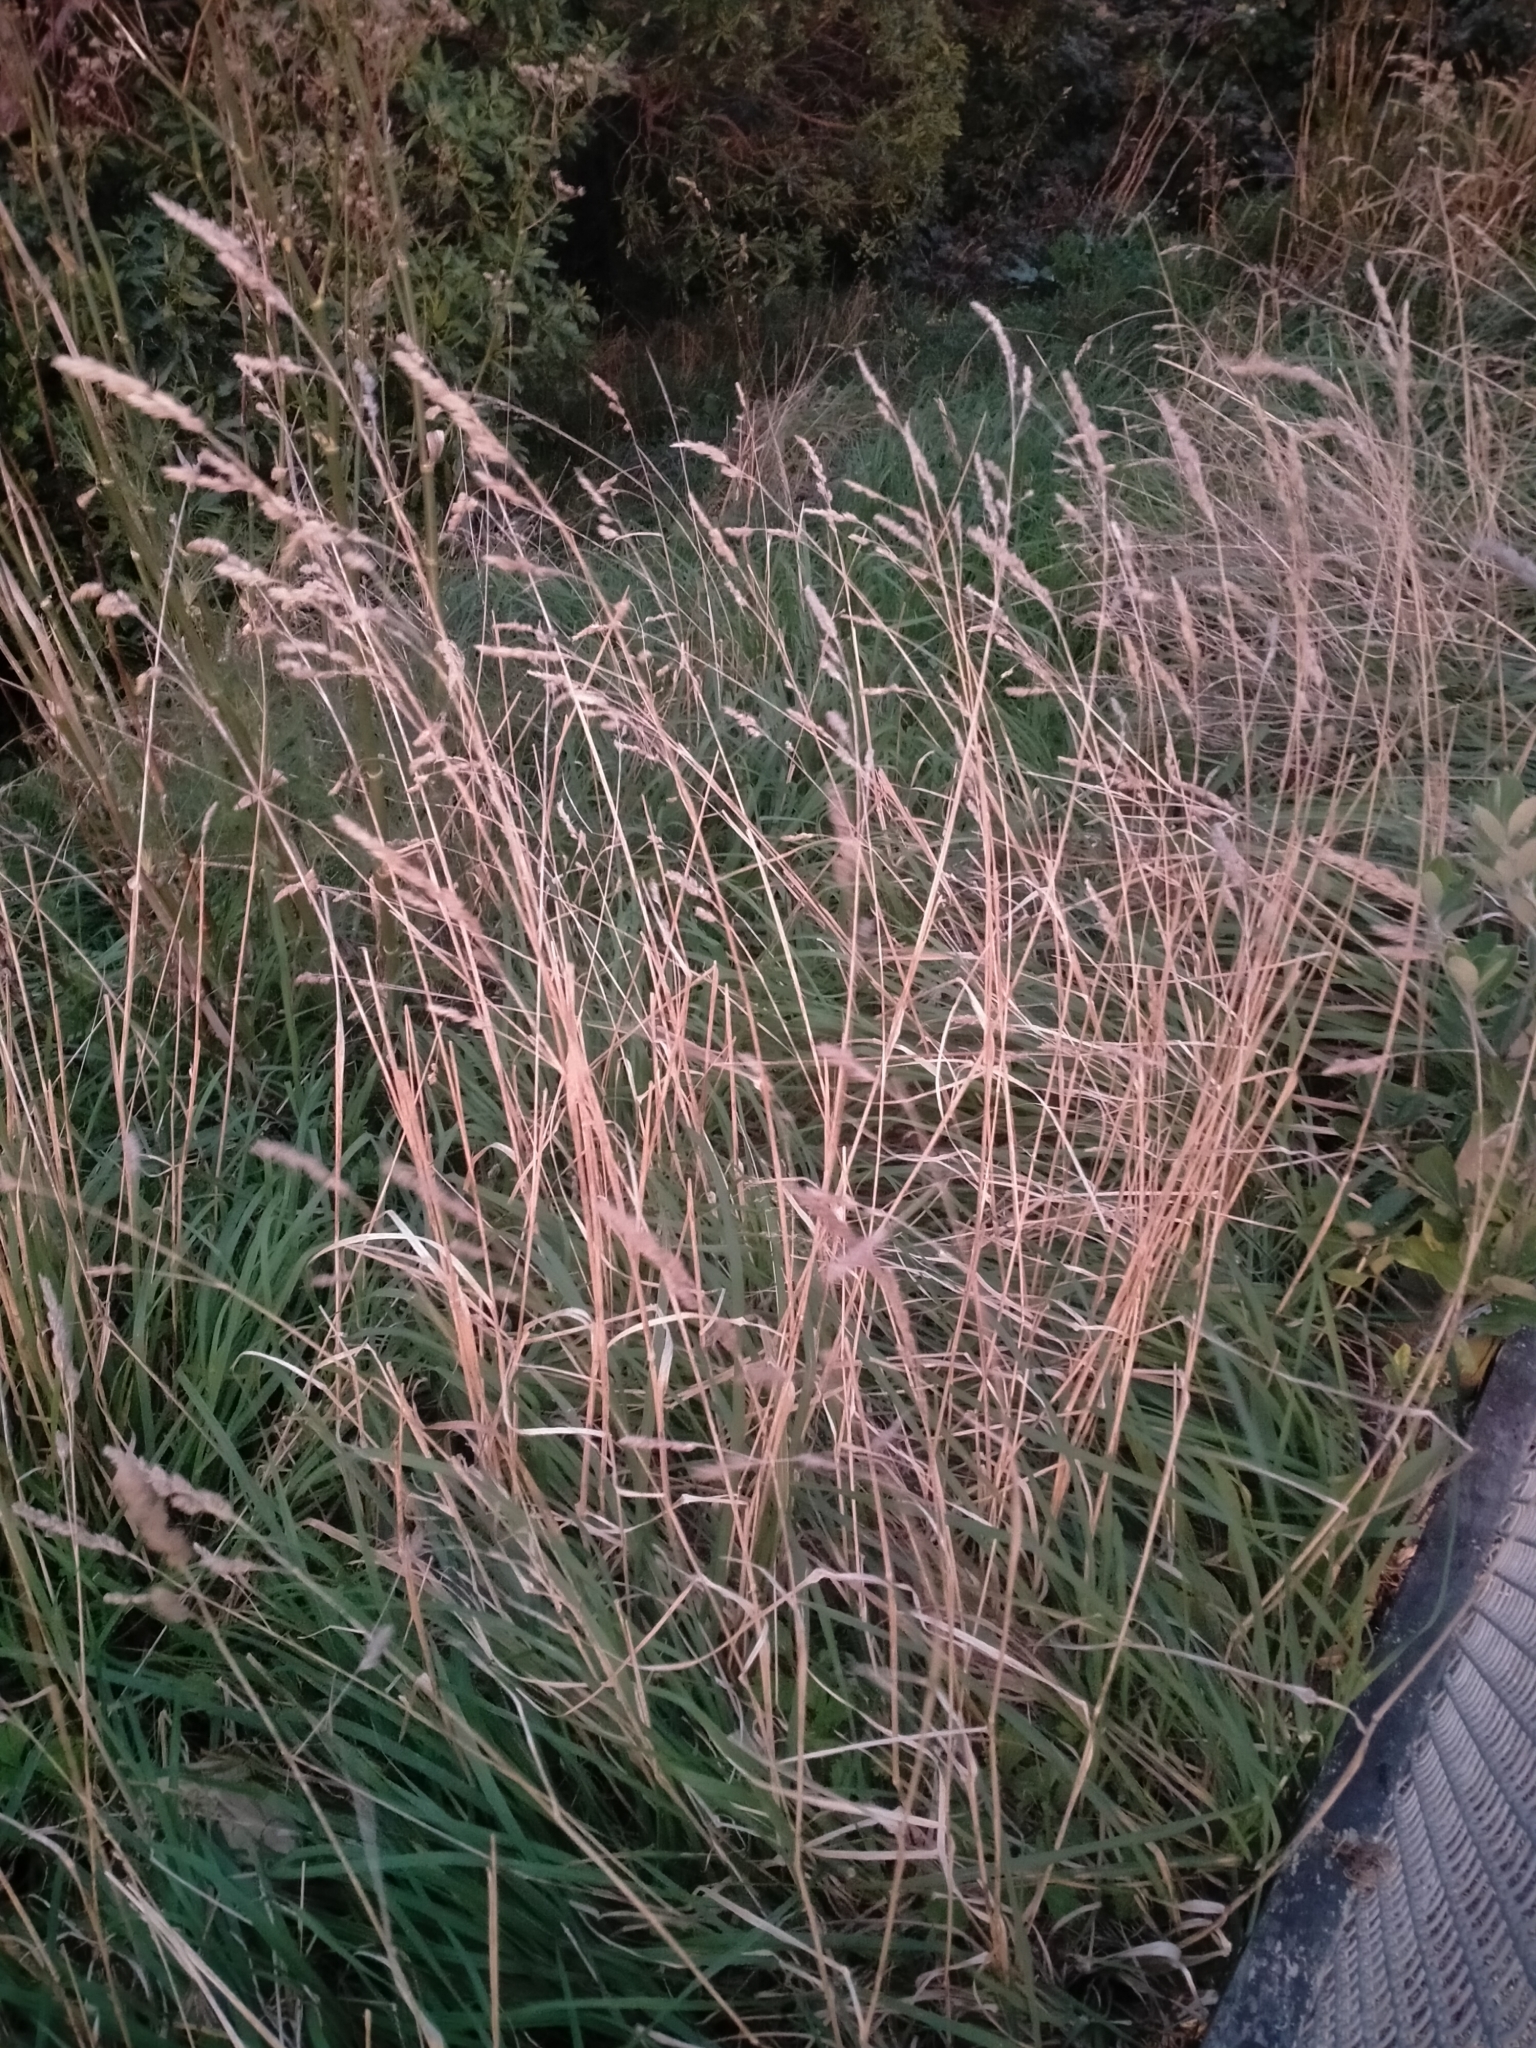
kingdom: Plantae
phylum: Tracheophyta
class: Liliopsida
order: Poales
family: Poaceae
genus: Dactylis
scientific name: Dactylis glomerata
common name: Orchardgrass
